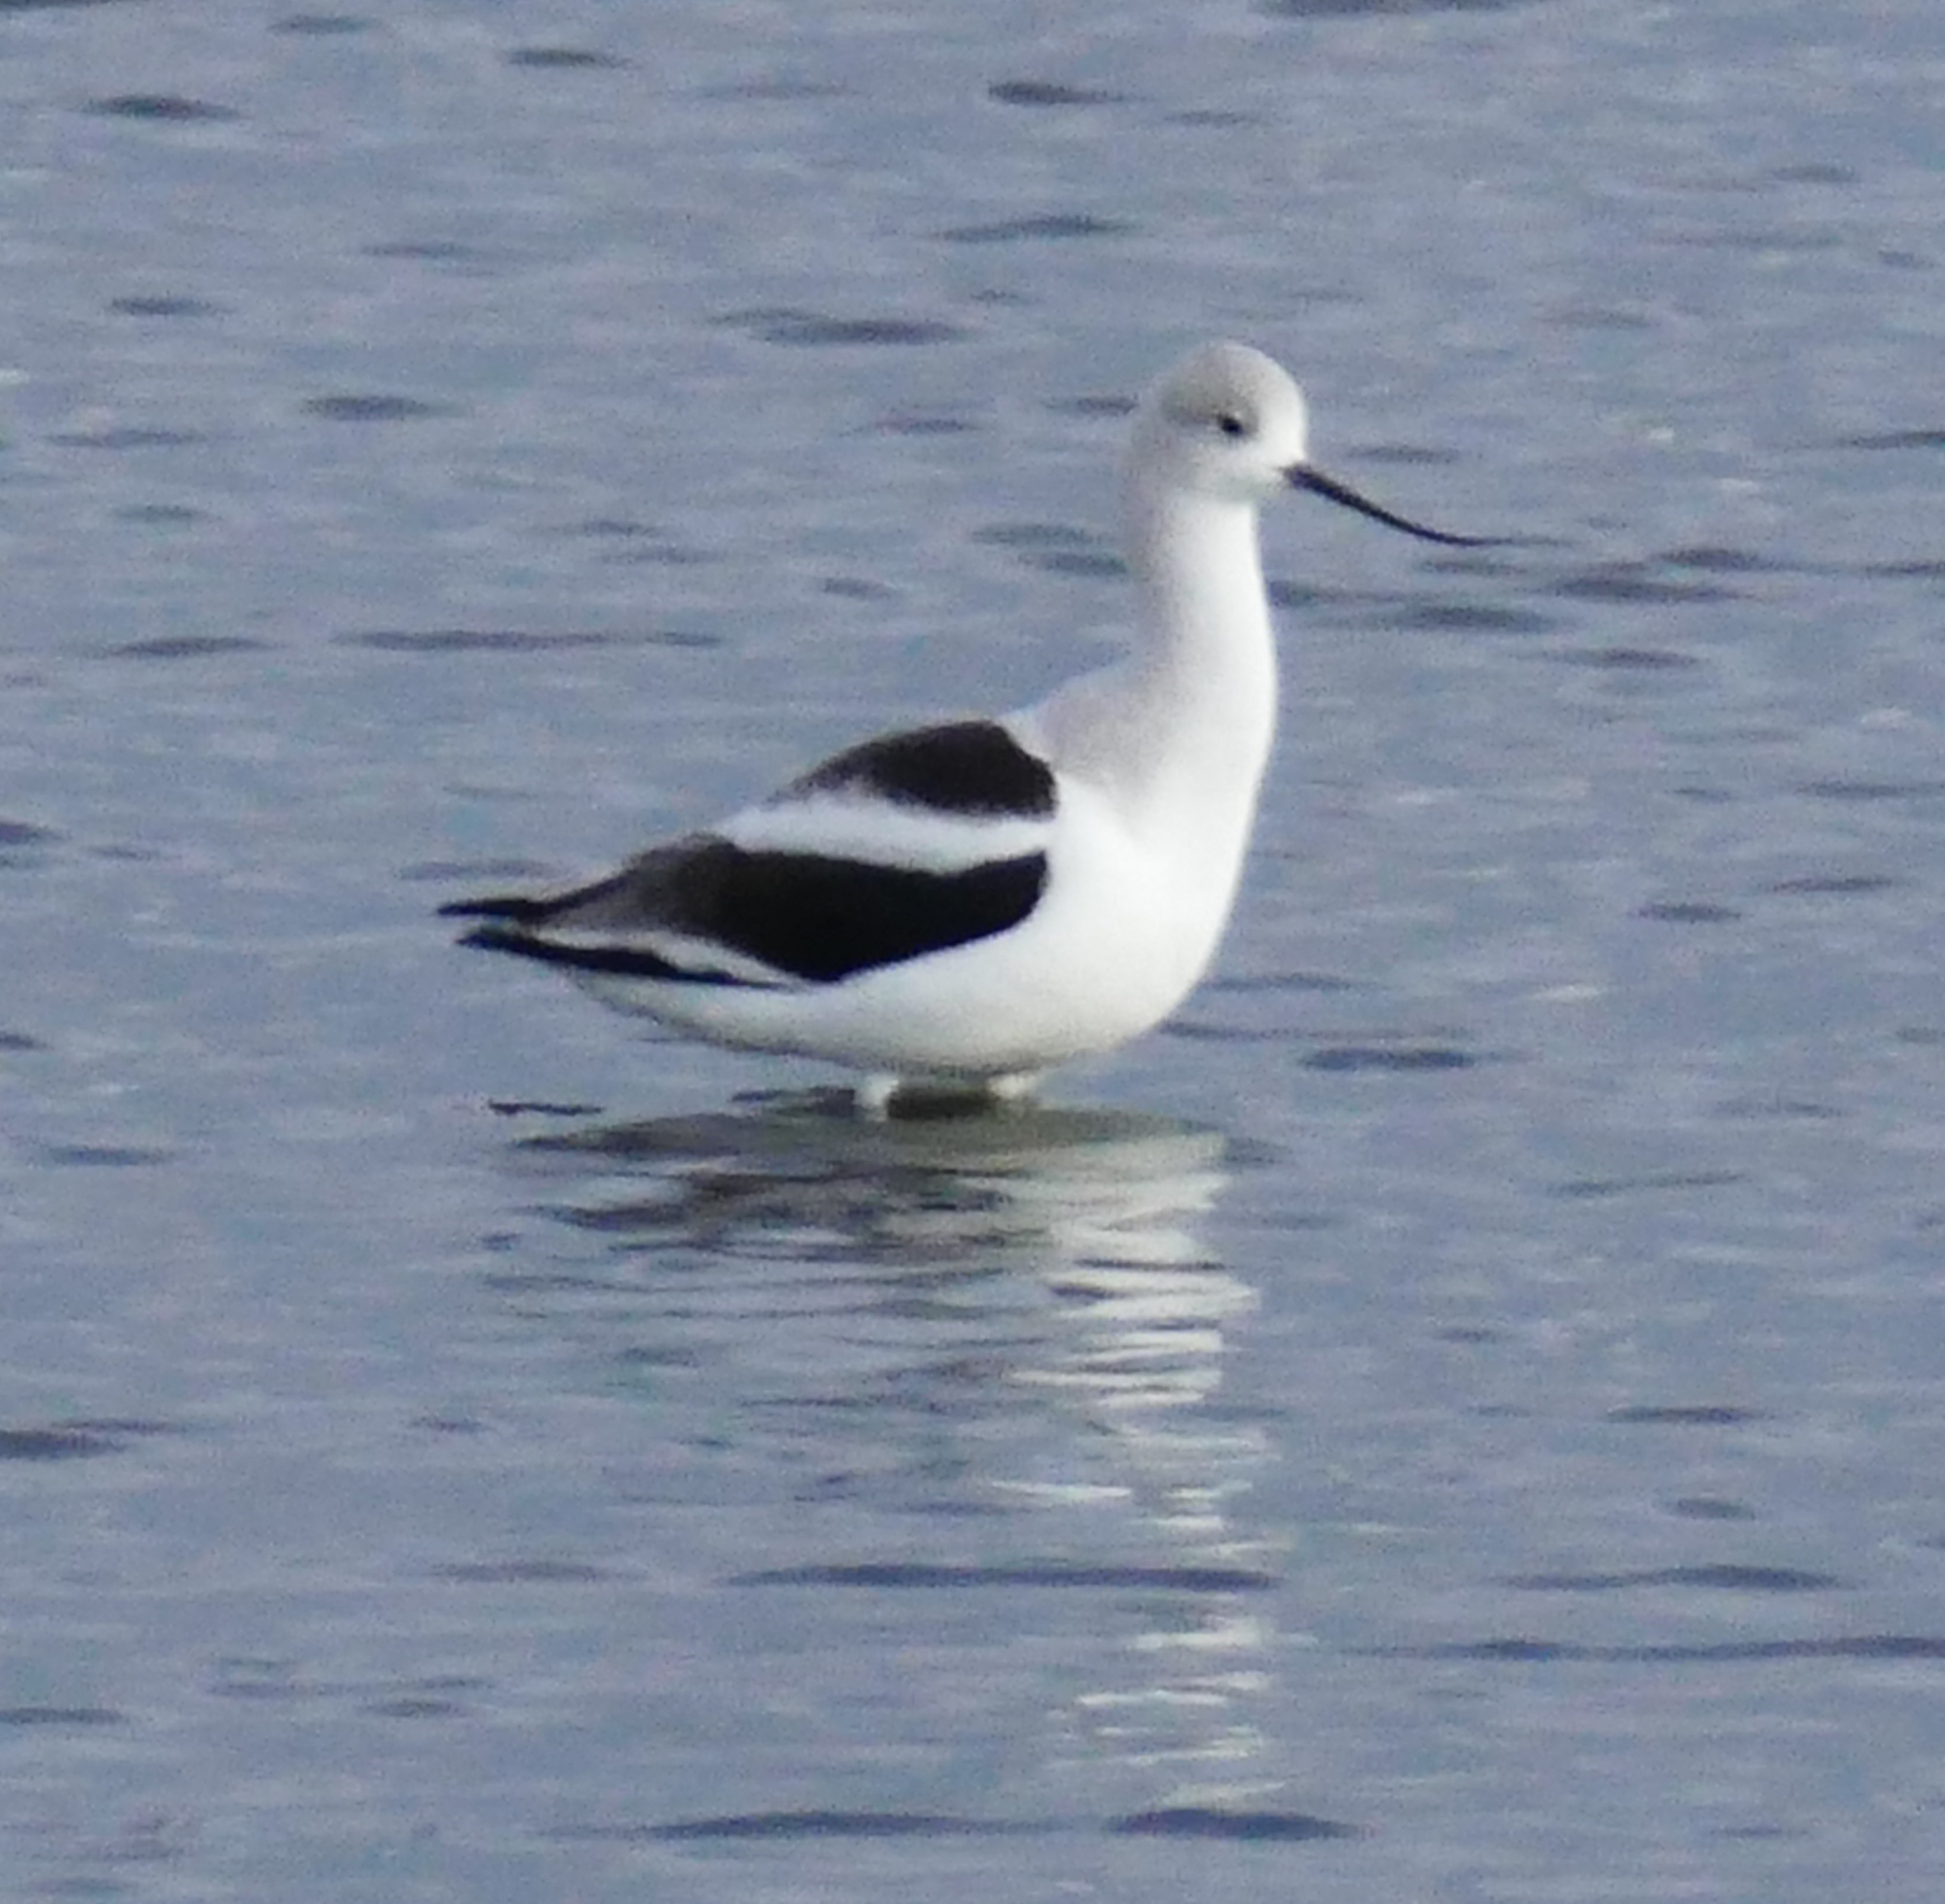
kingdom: Animalia
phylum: Chordata
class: Aves
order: Charadriiformes
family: Recurvirostridae
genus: Recurvirostra
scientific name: Recurvirostra americana
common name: American avocet
